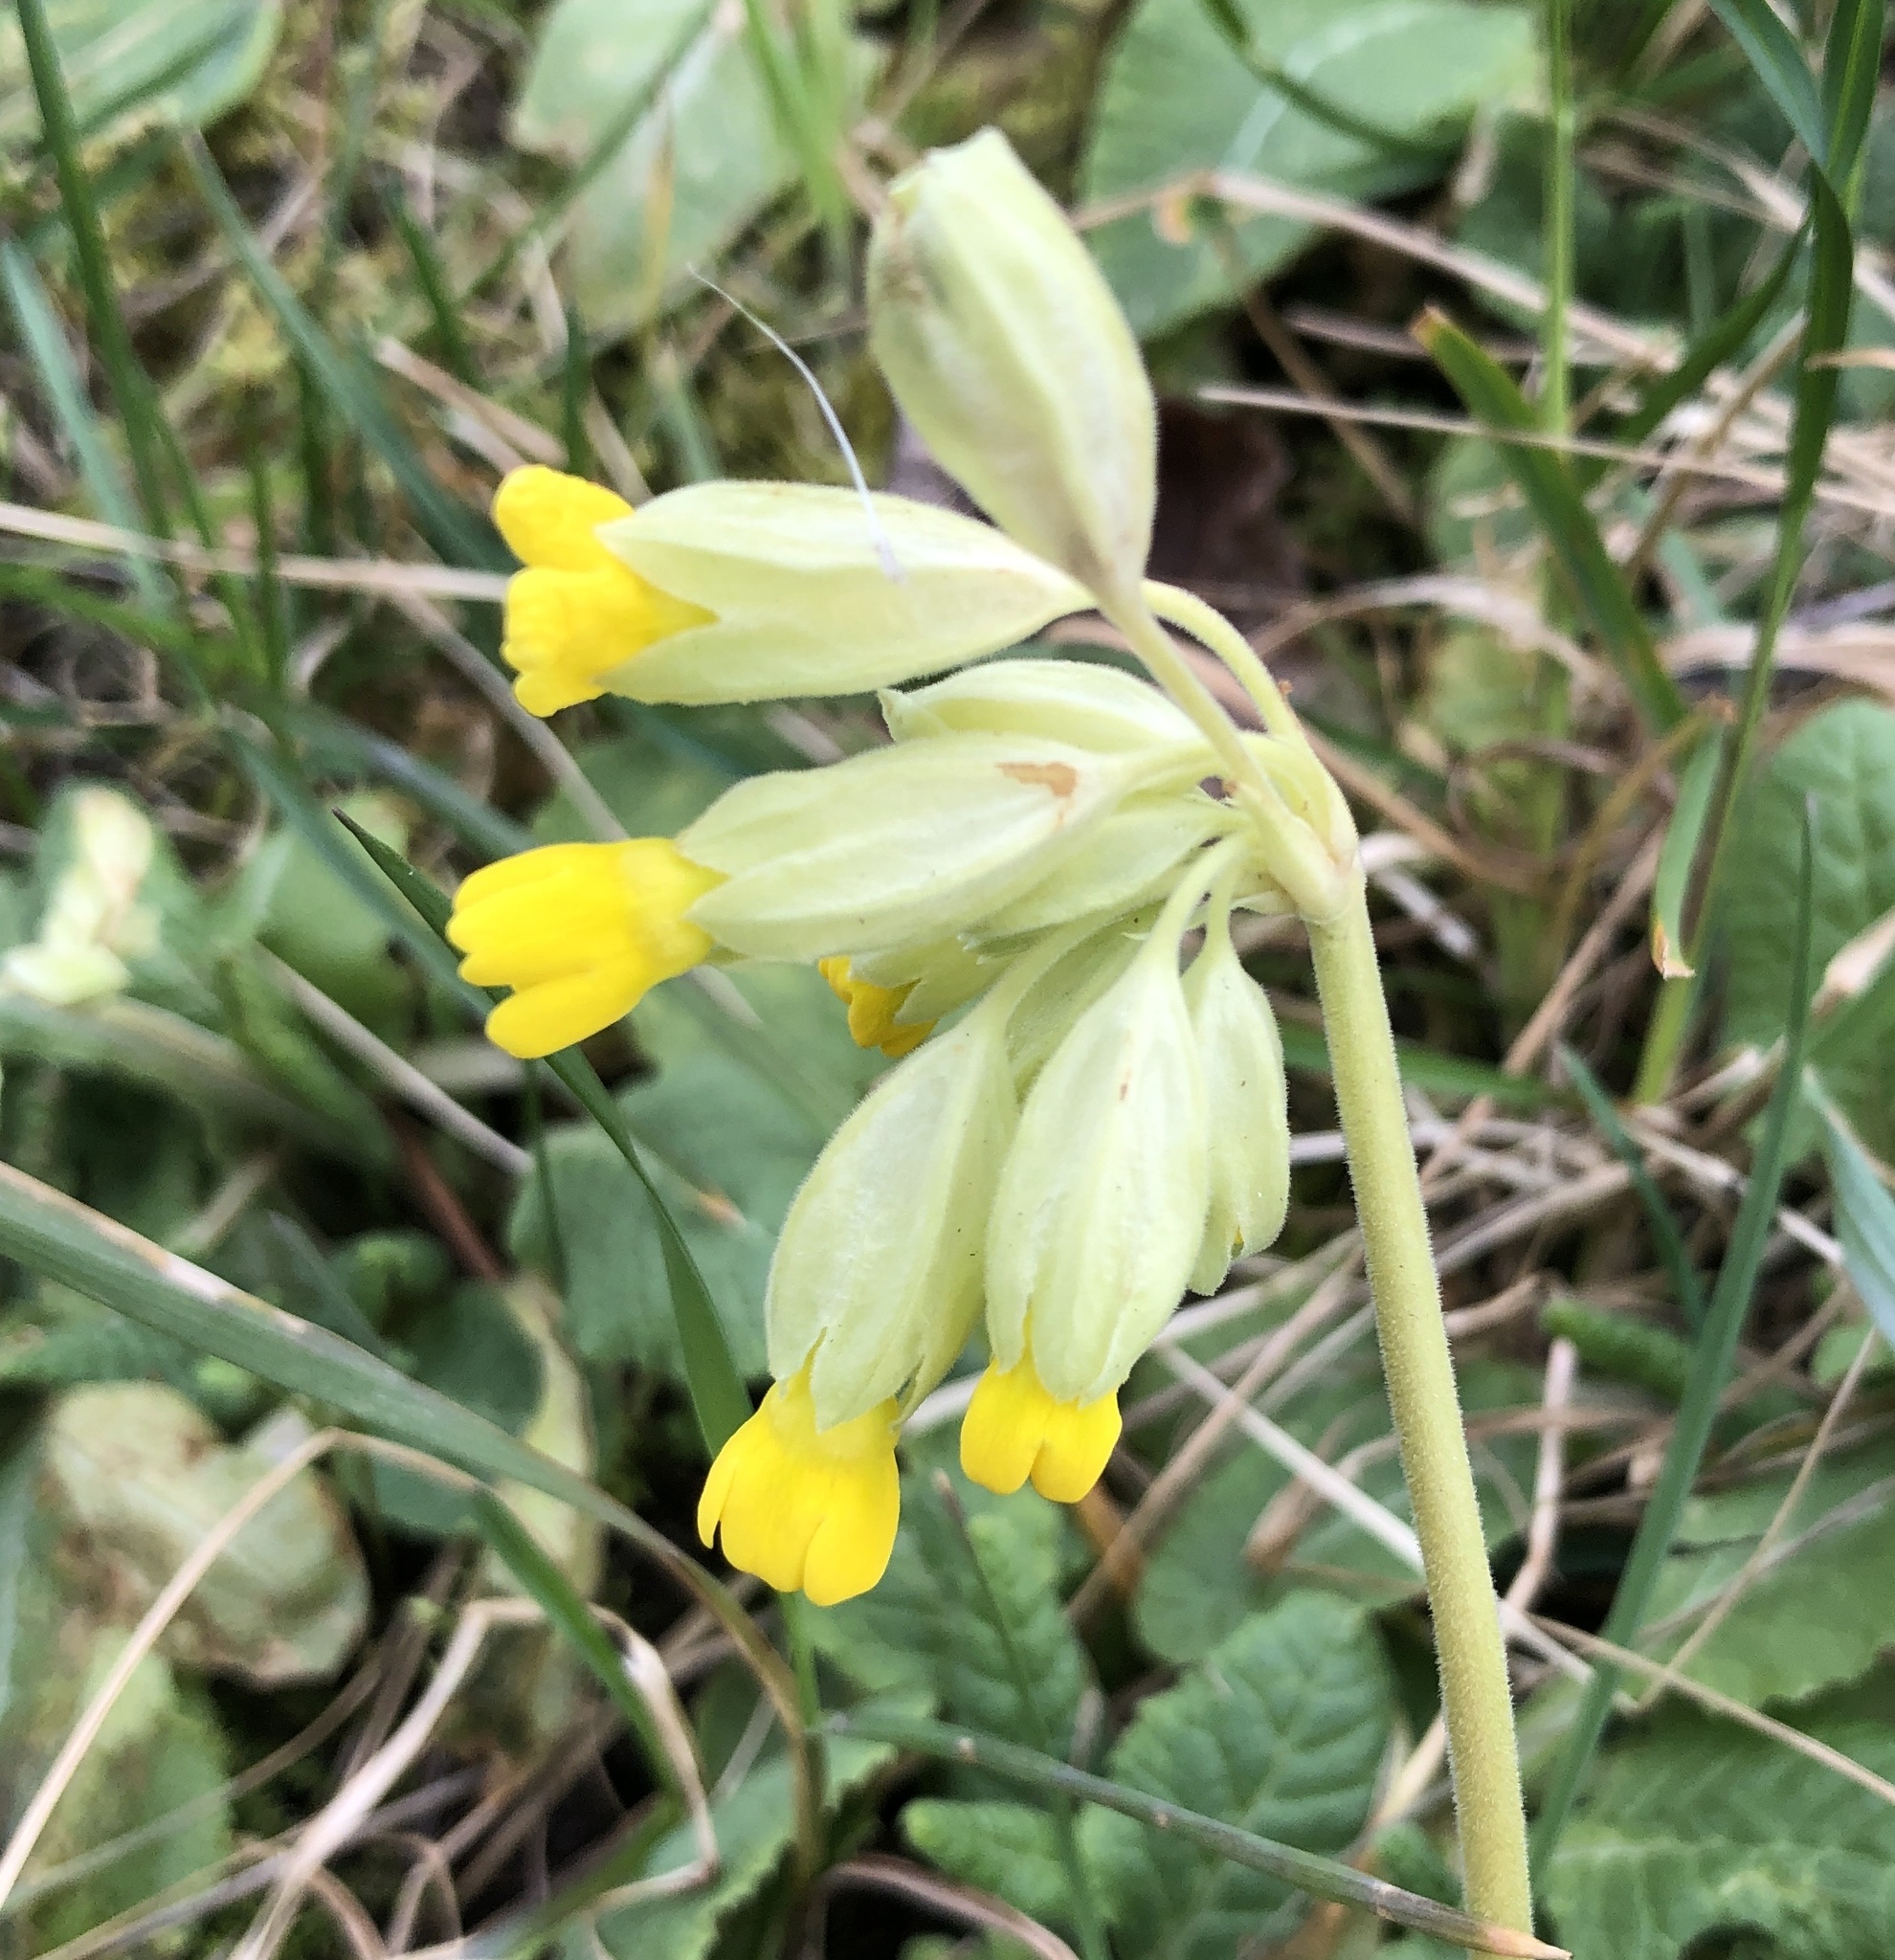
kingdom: Plantae
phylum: Tracheophyta
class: Magnoliopsida
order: Ericales
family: Primulaceae
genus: Primula
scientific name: Primula veris
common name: Cowslip
